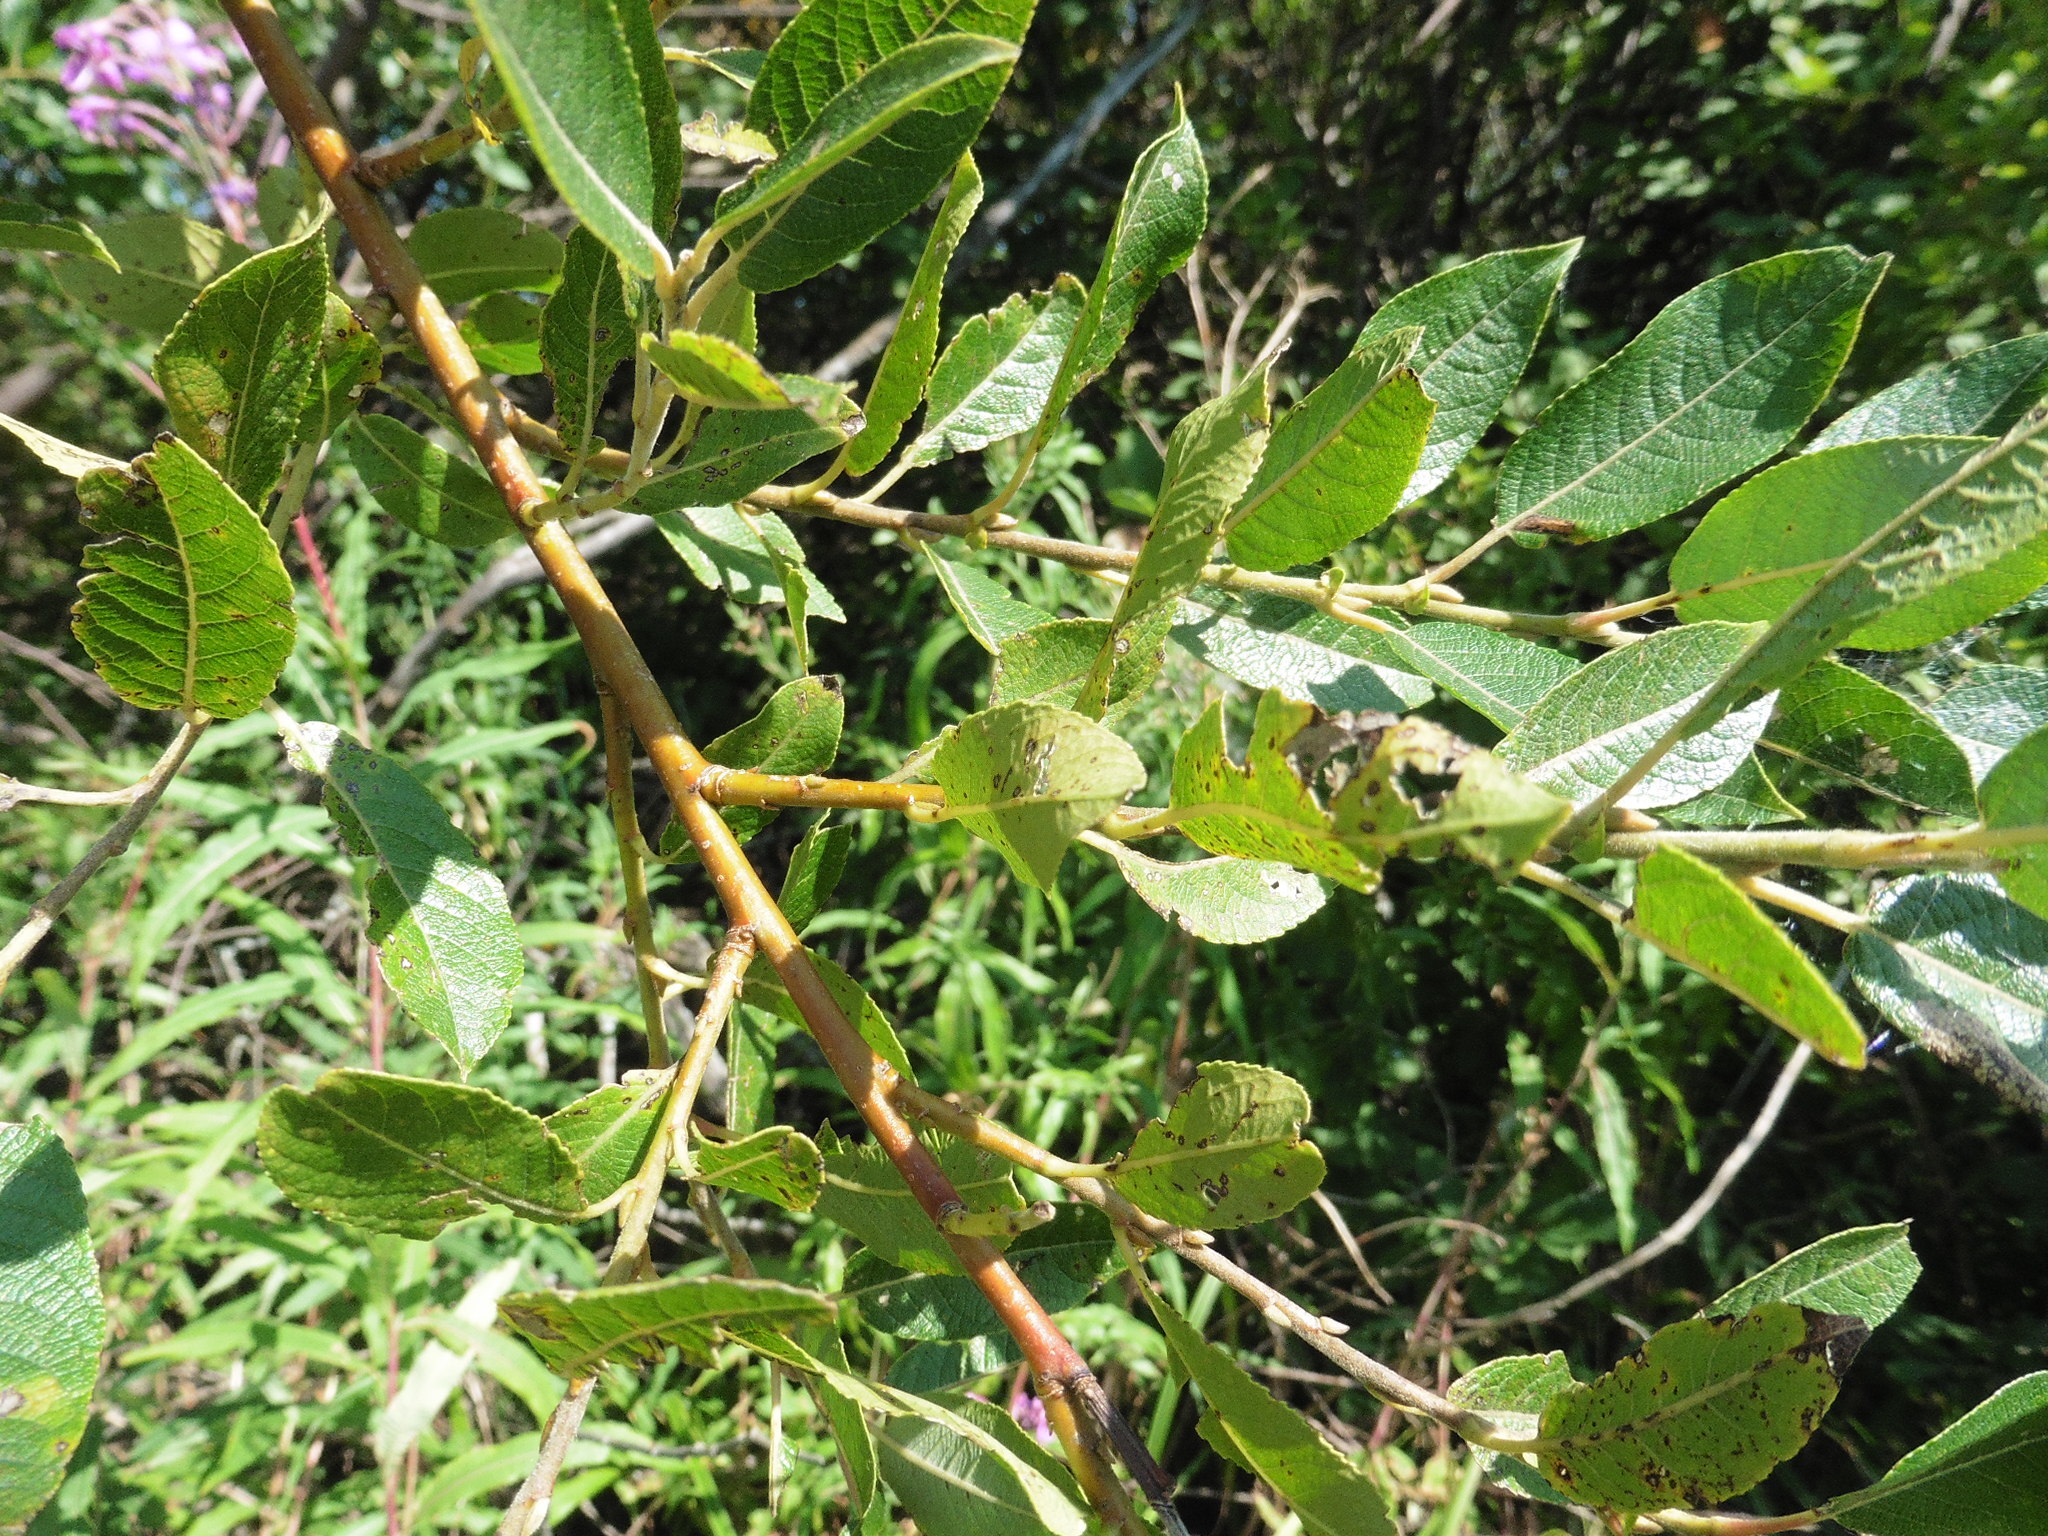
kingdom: Plantae
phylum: Tracheophyta
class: Magnoliopsida
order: Malpighiales
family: Salicaceae
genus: Salix
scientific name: Salix myrsinifolia
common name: Dark-leaved willow
